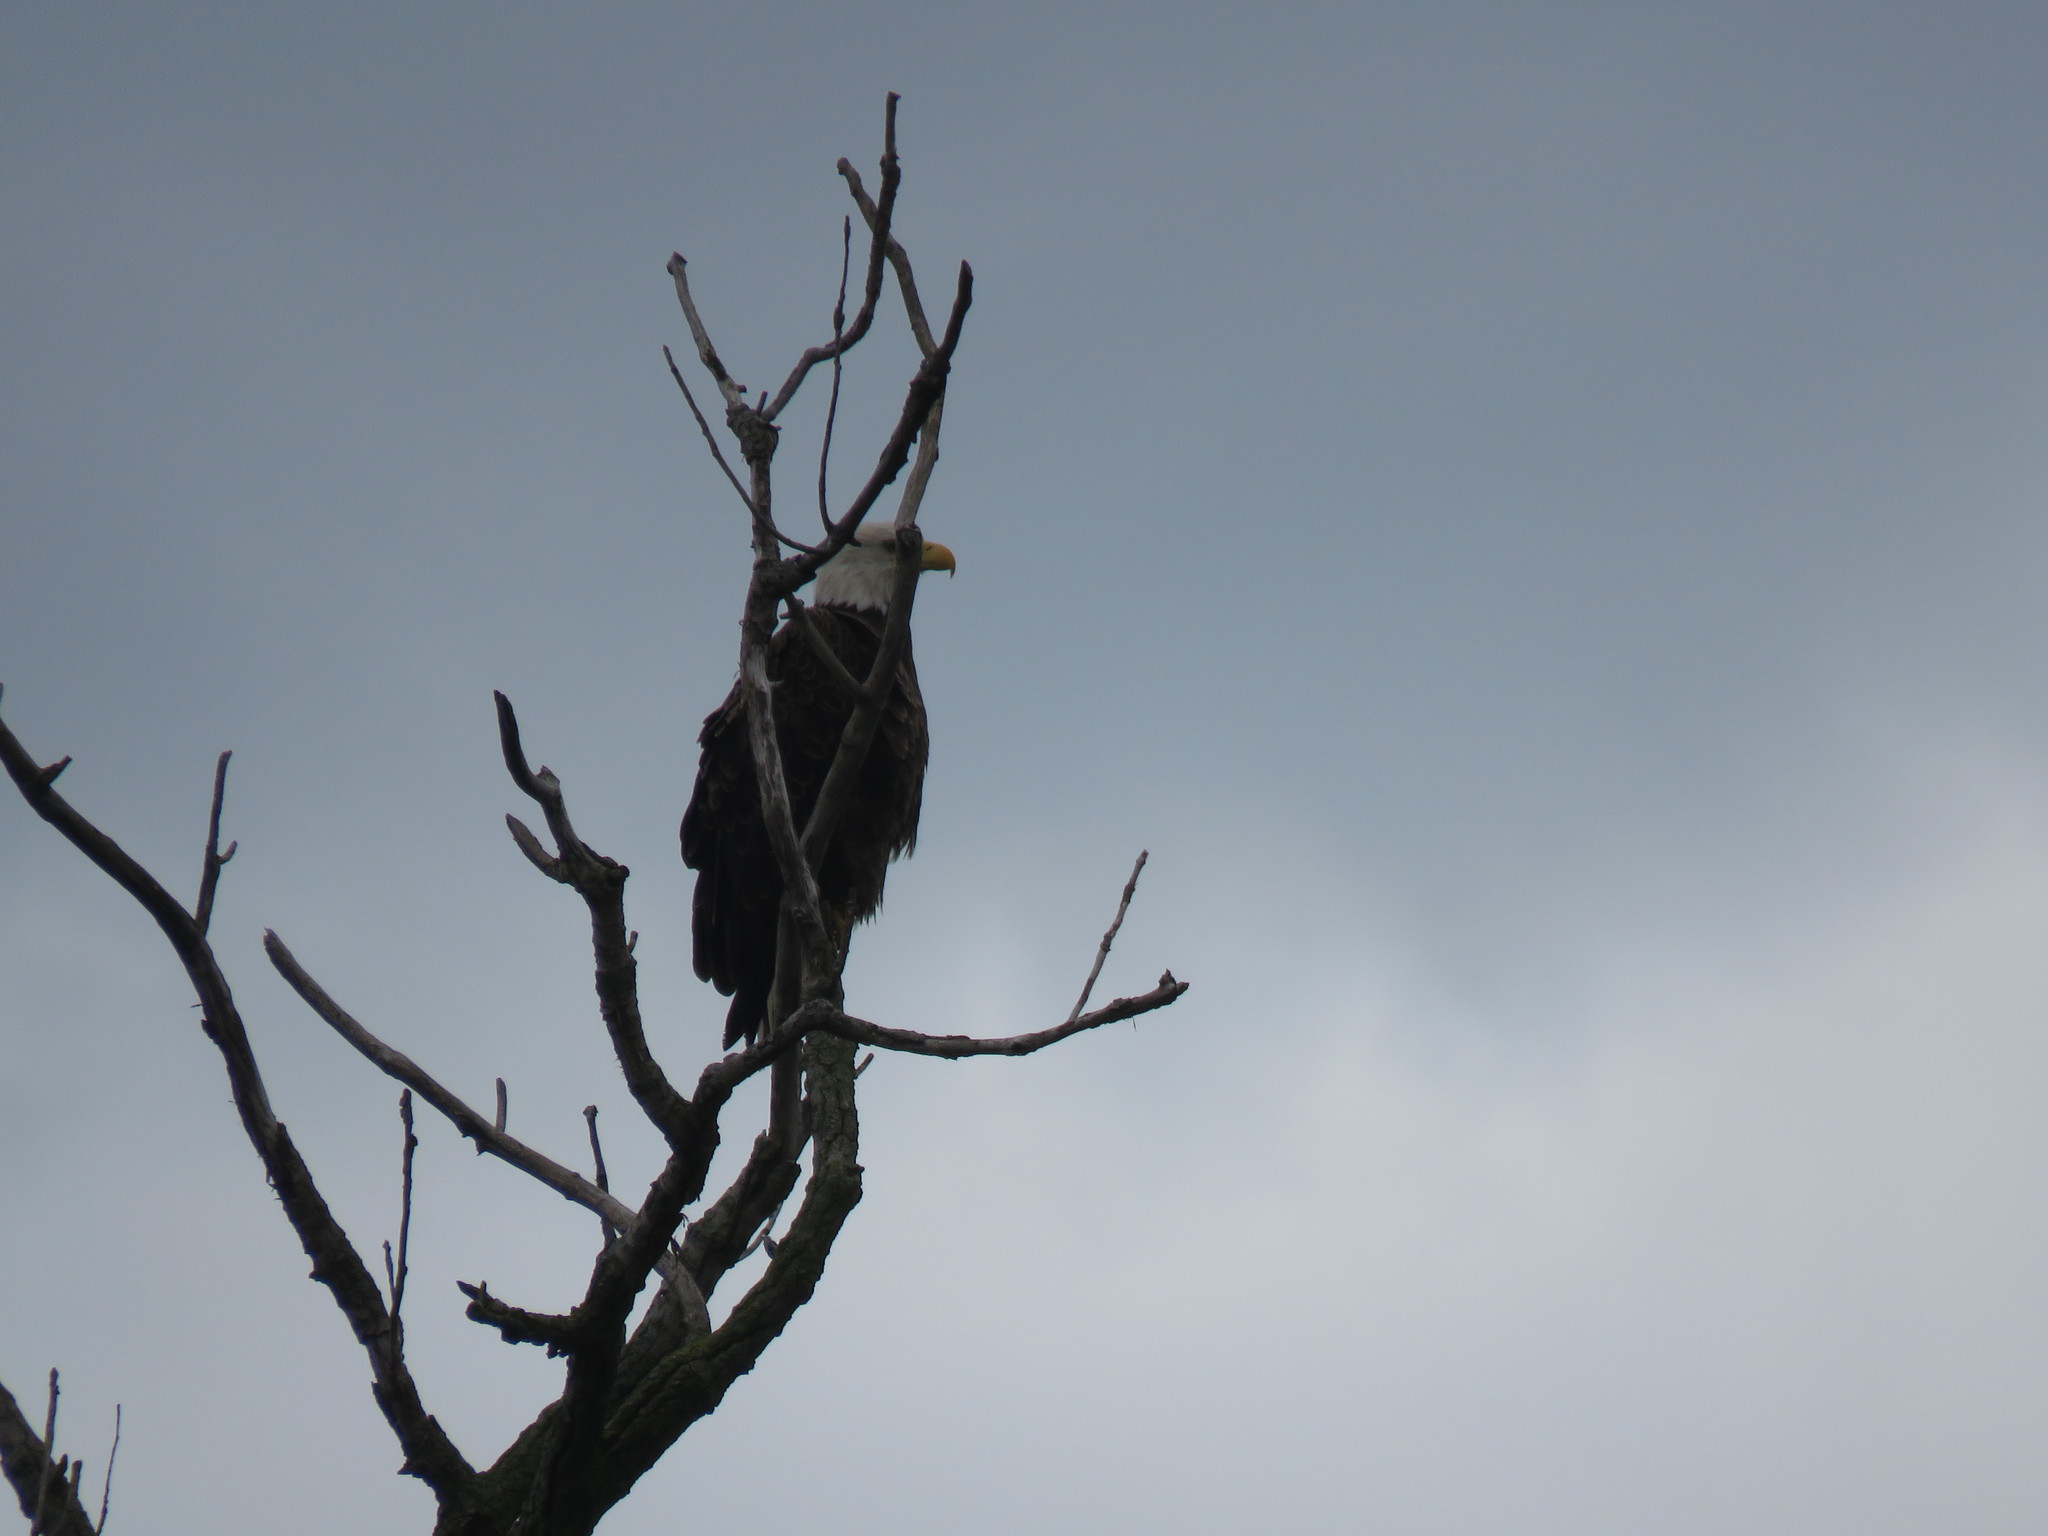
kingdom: Animalia
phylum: Chordata
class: Aves
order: Accipitriformes
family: Accipitridae
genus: Haliaeetus
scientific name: Haliaeetus leucocephalus
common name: Bald eagle
